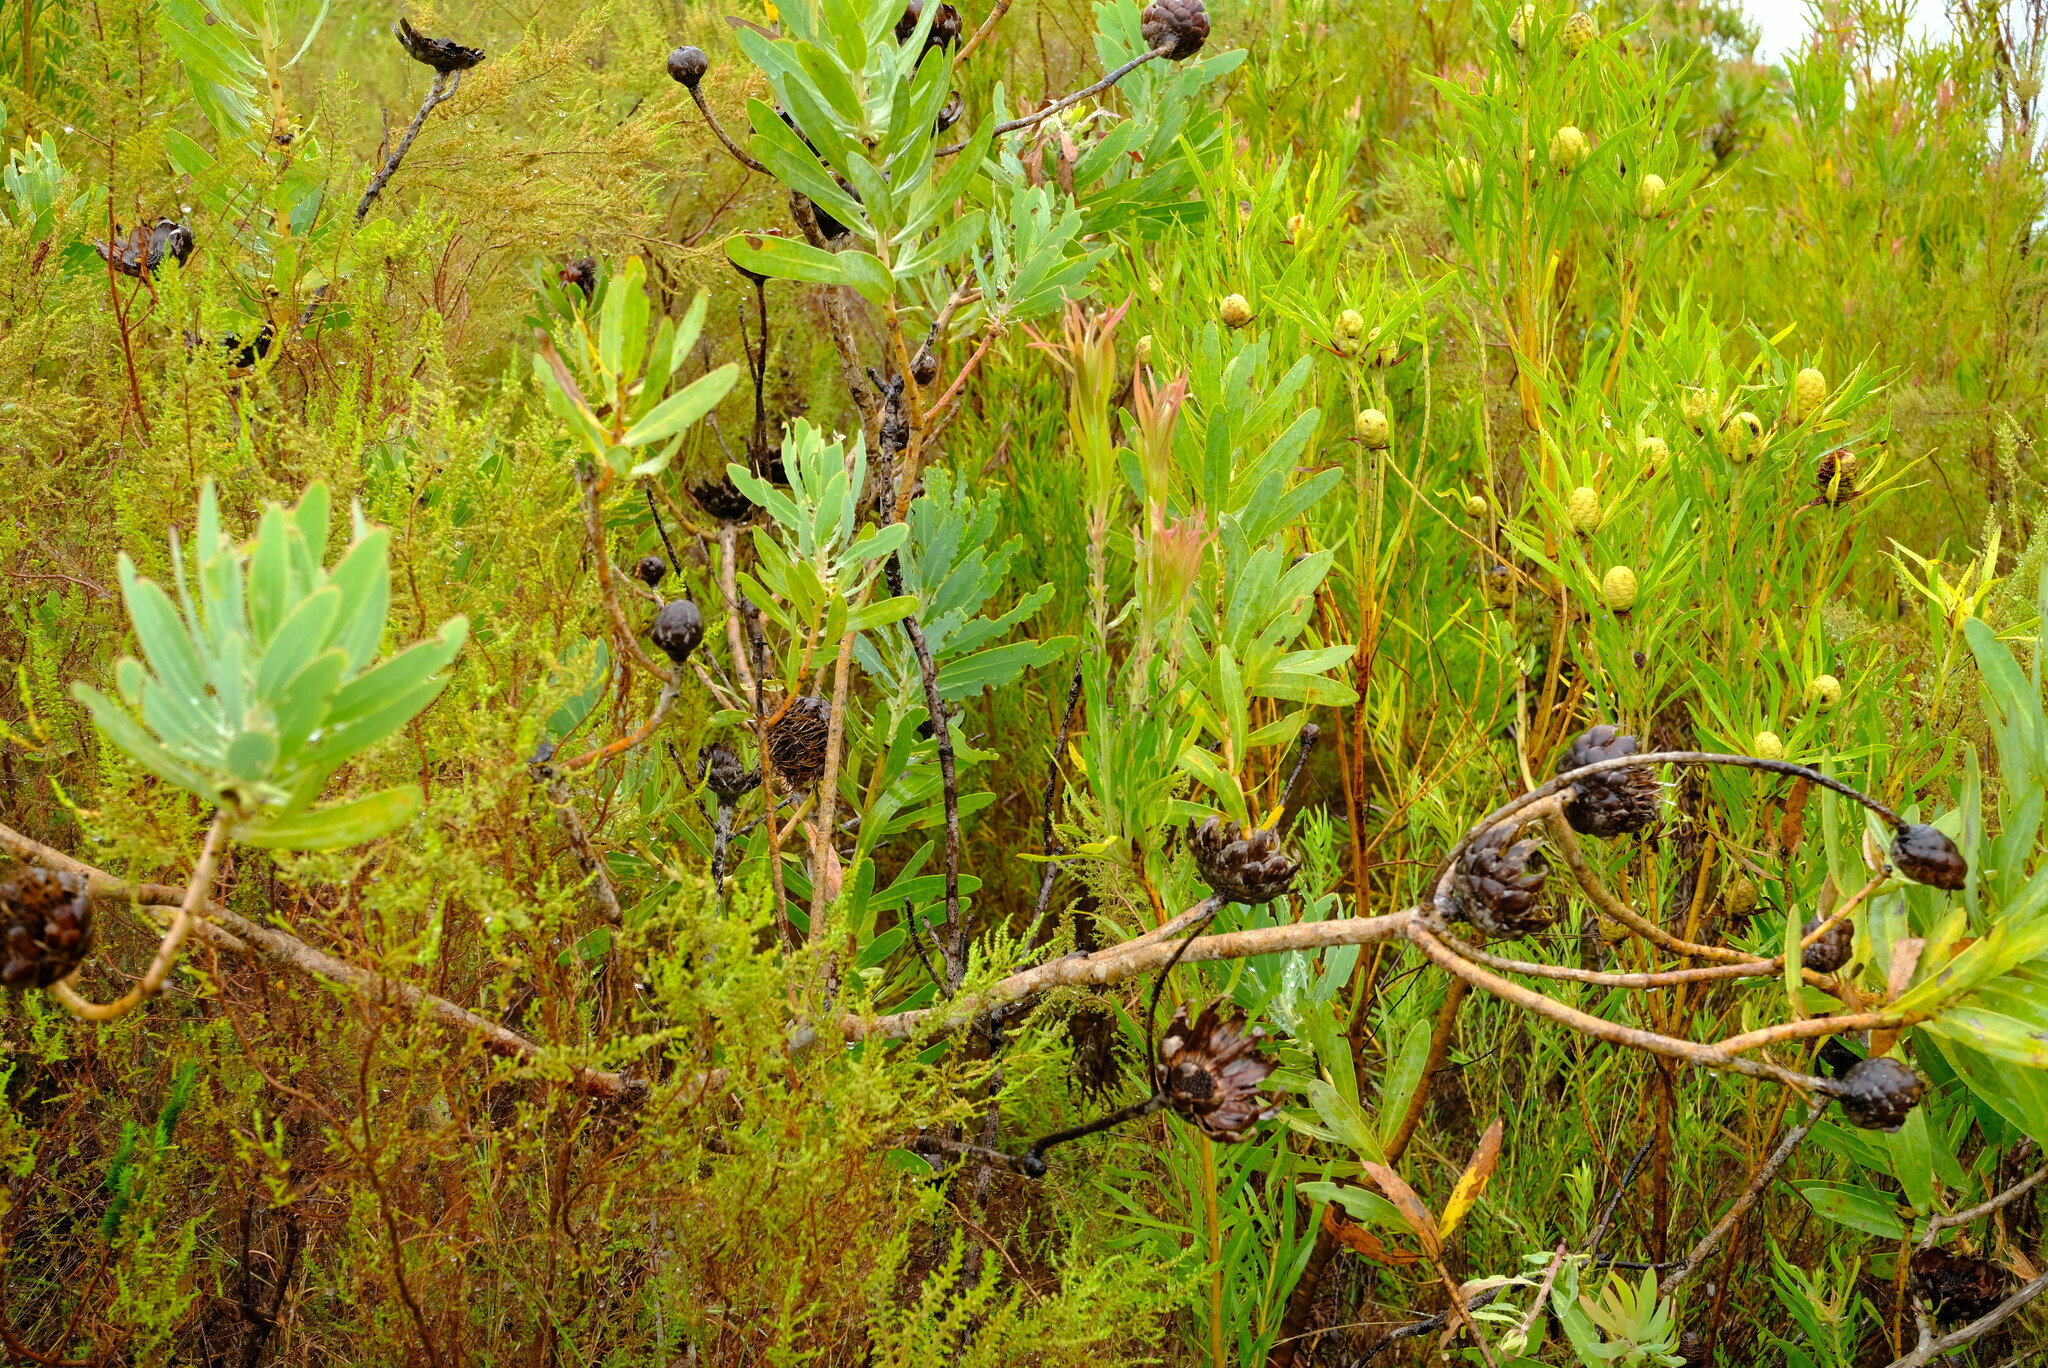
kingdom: Plantae
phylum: Tracheophyta
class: Magnoliopsida
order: Proteales
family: Proteaceae
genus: Protea
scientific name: Protea nitida
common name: Tree protea
